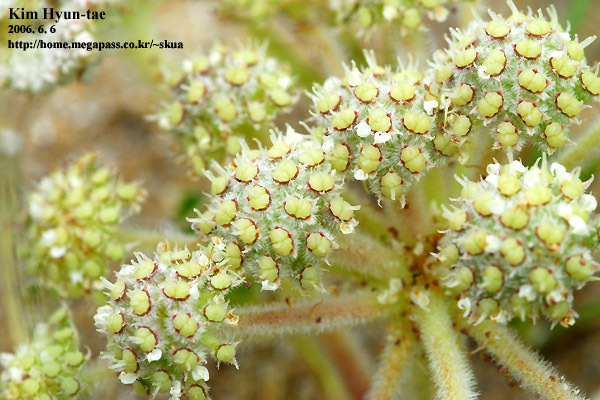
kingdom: Plantae
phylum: Tracheophyta
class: Magnoliopsida
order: Apiales
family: Apiaceae
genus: Glehnia
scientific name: Glehnia littoralis
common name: Beach silvertop
